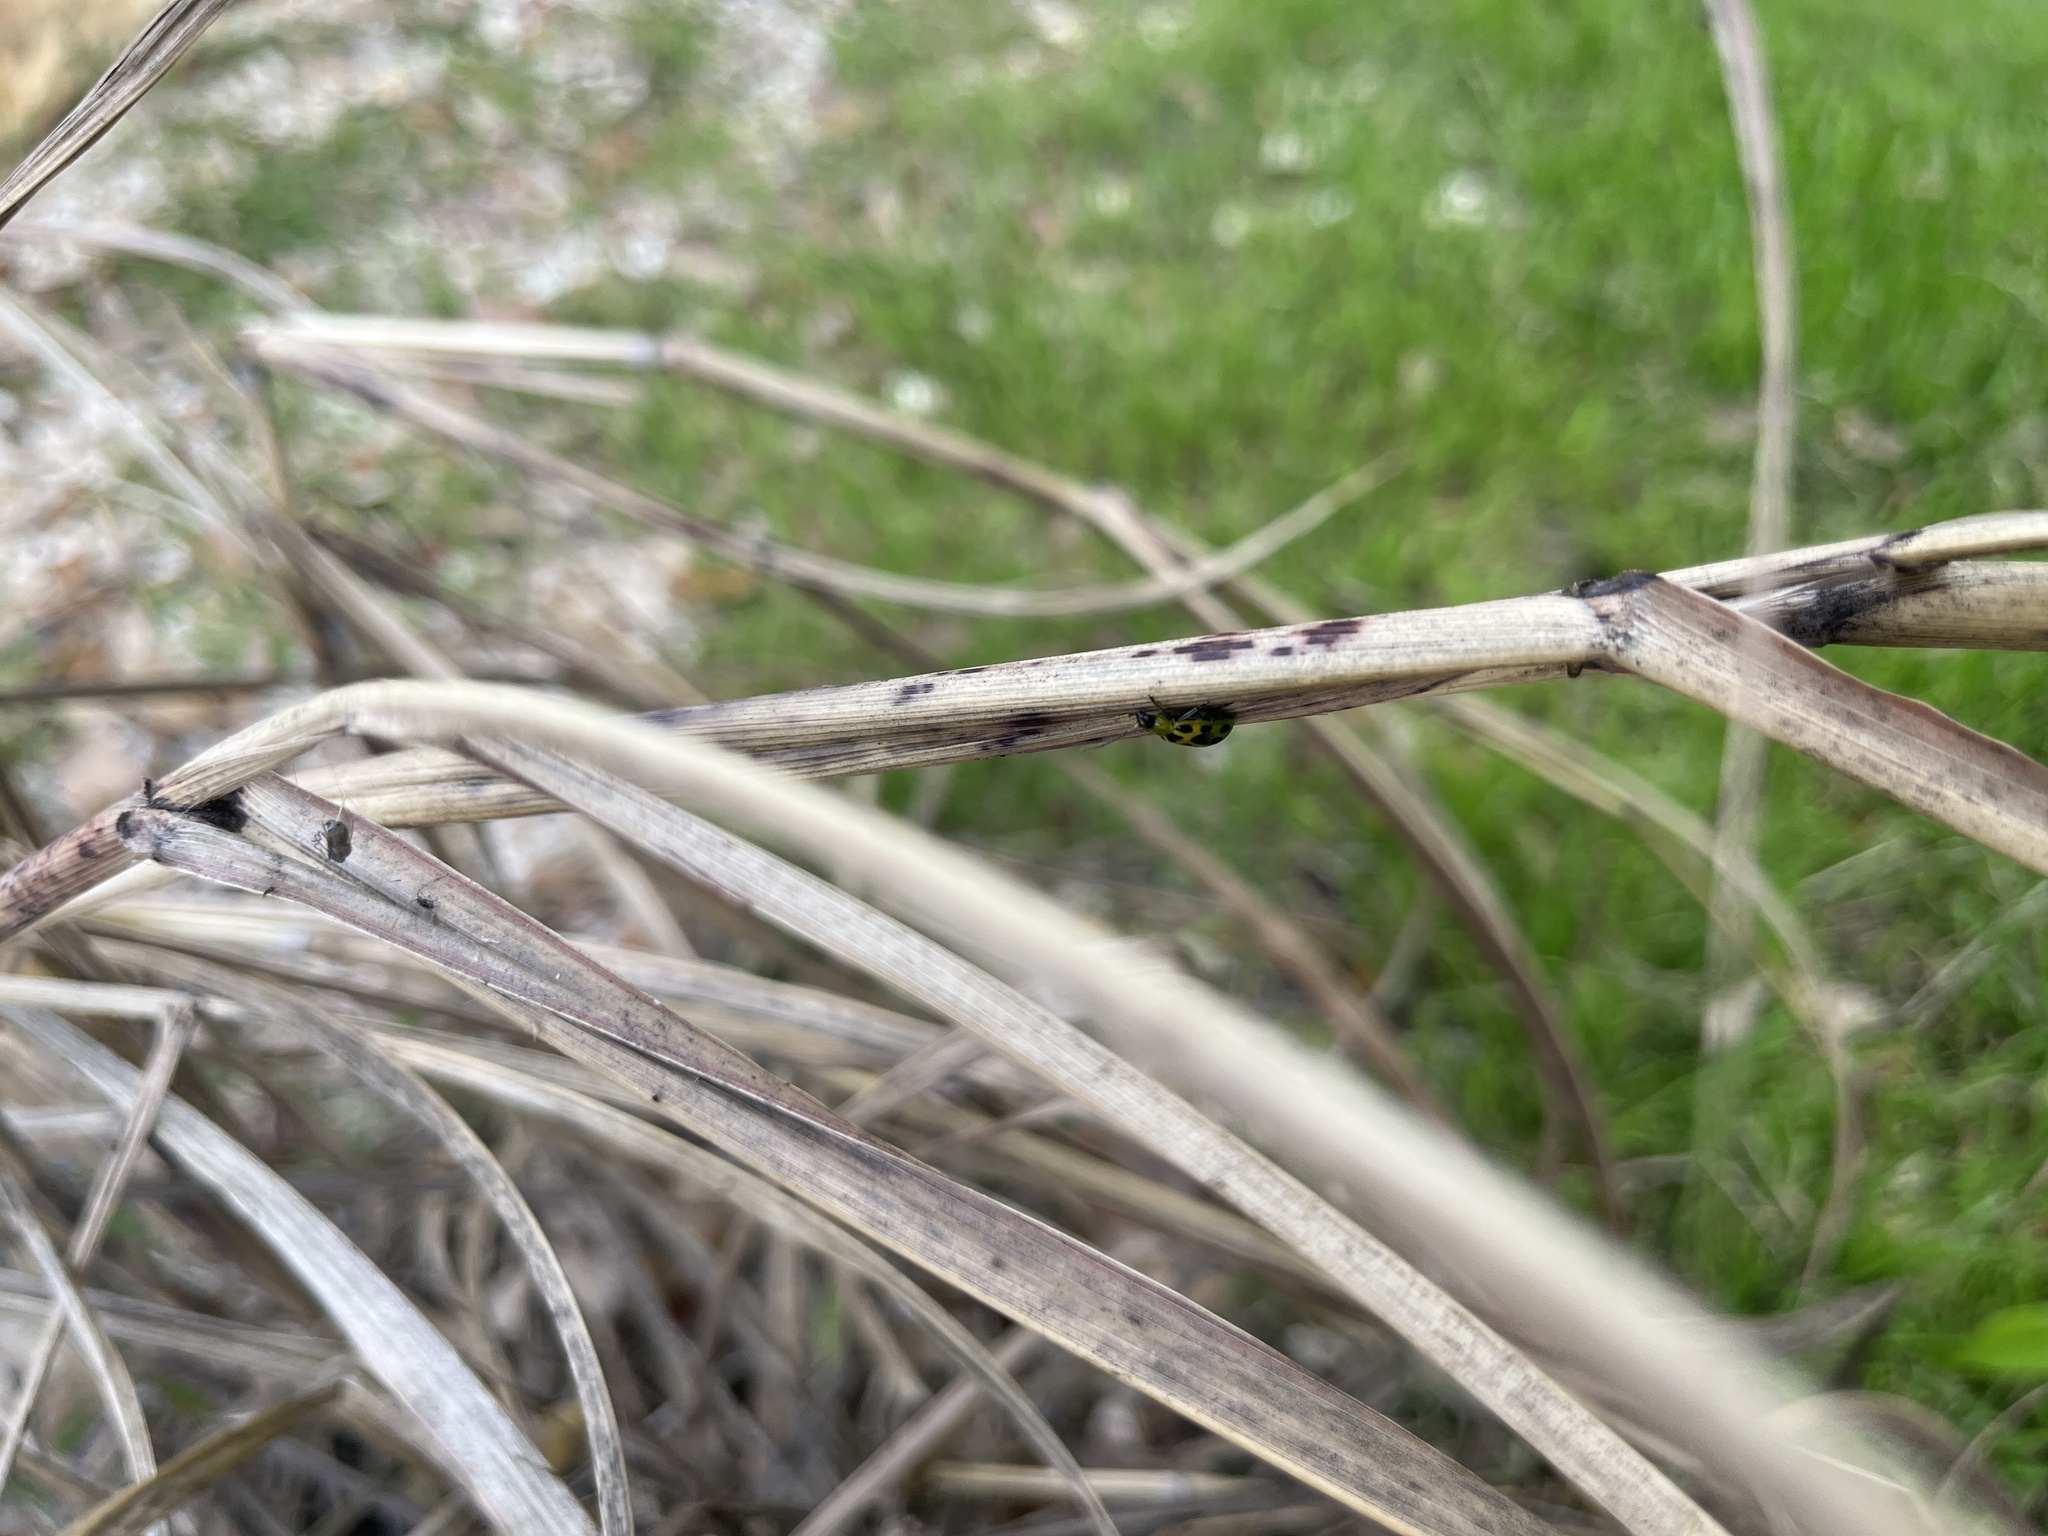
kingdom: Animalia
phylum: Arthropoda
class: Insecta
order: Coleoptera
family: Chrysomelidae
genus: Diabrotica
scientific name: Diabrotica undecimpunctata
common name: Spotted cucumber beetle
